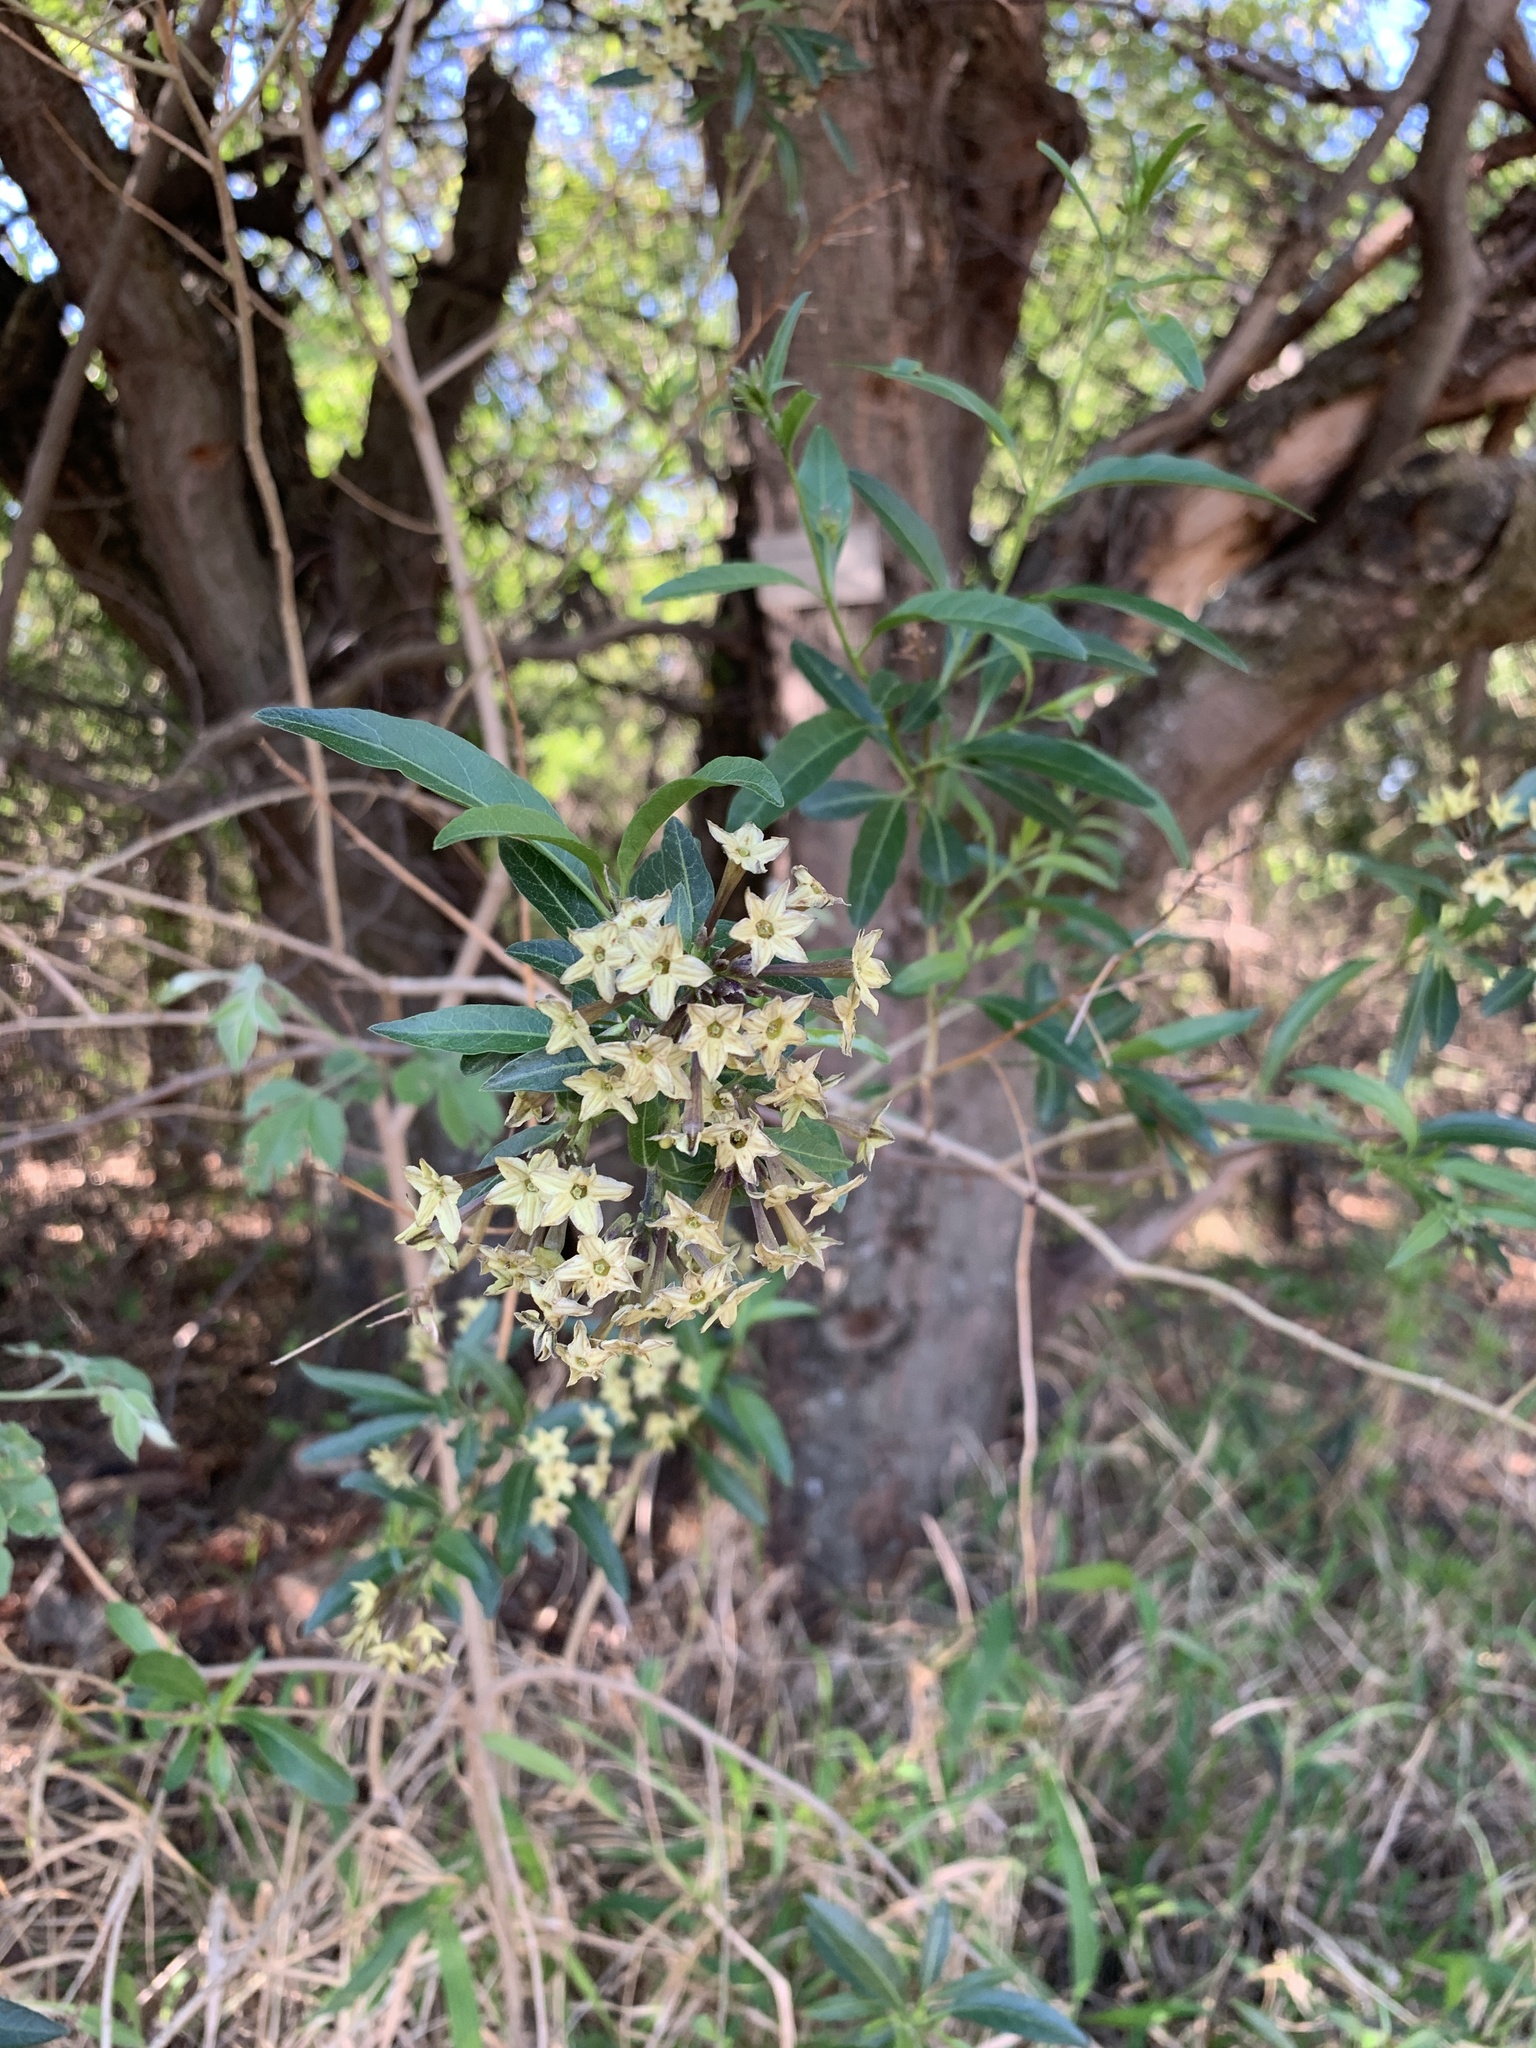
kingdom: Plantae
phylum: Tracheophyta
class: Magnoliopsida
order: Solanales
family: Solanaceae
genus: Cestrum
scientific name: Cestrum parqui
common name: Chilean cestrum
